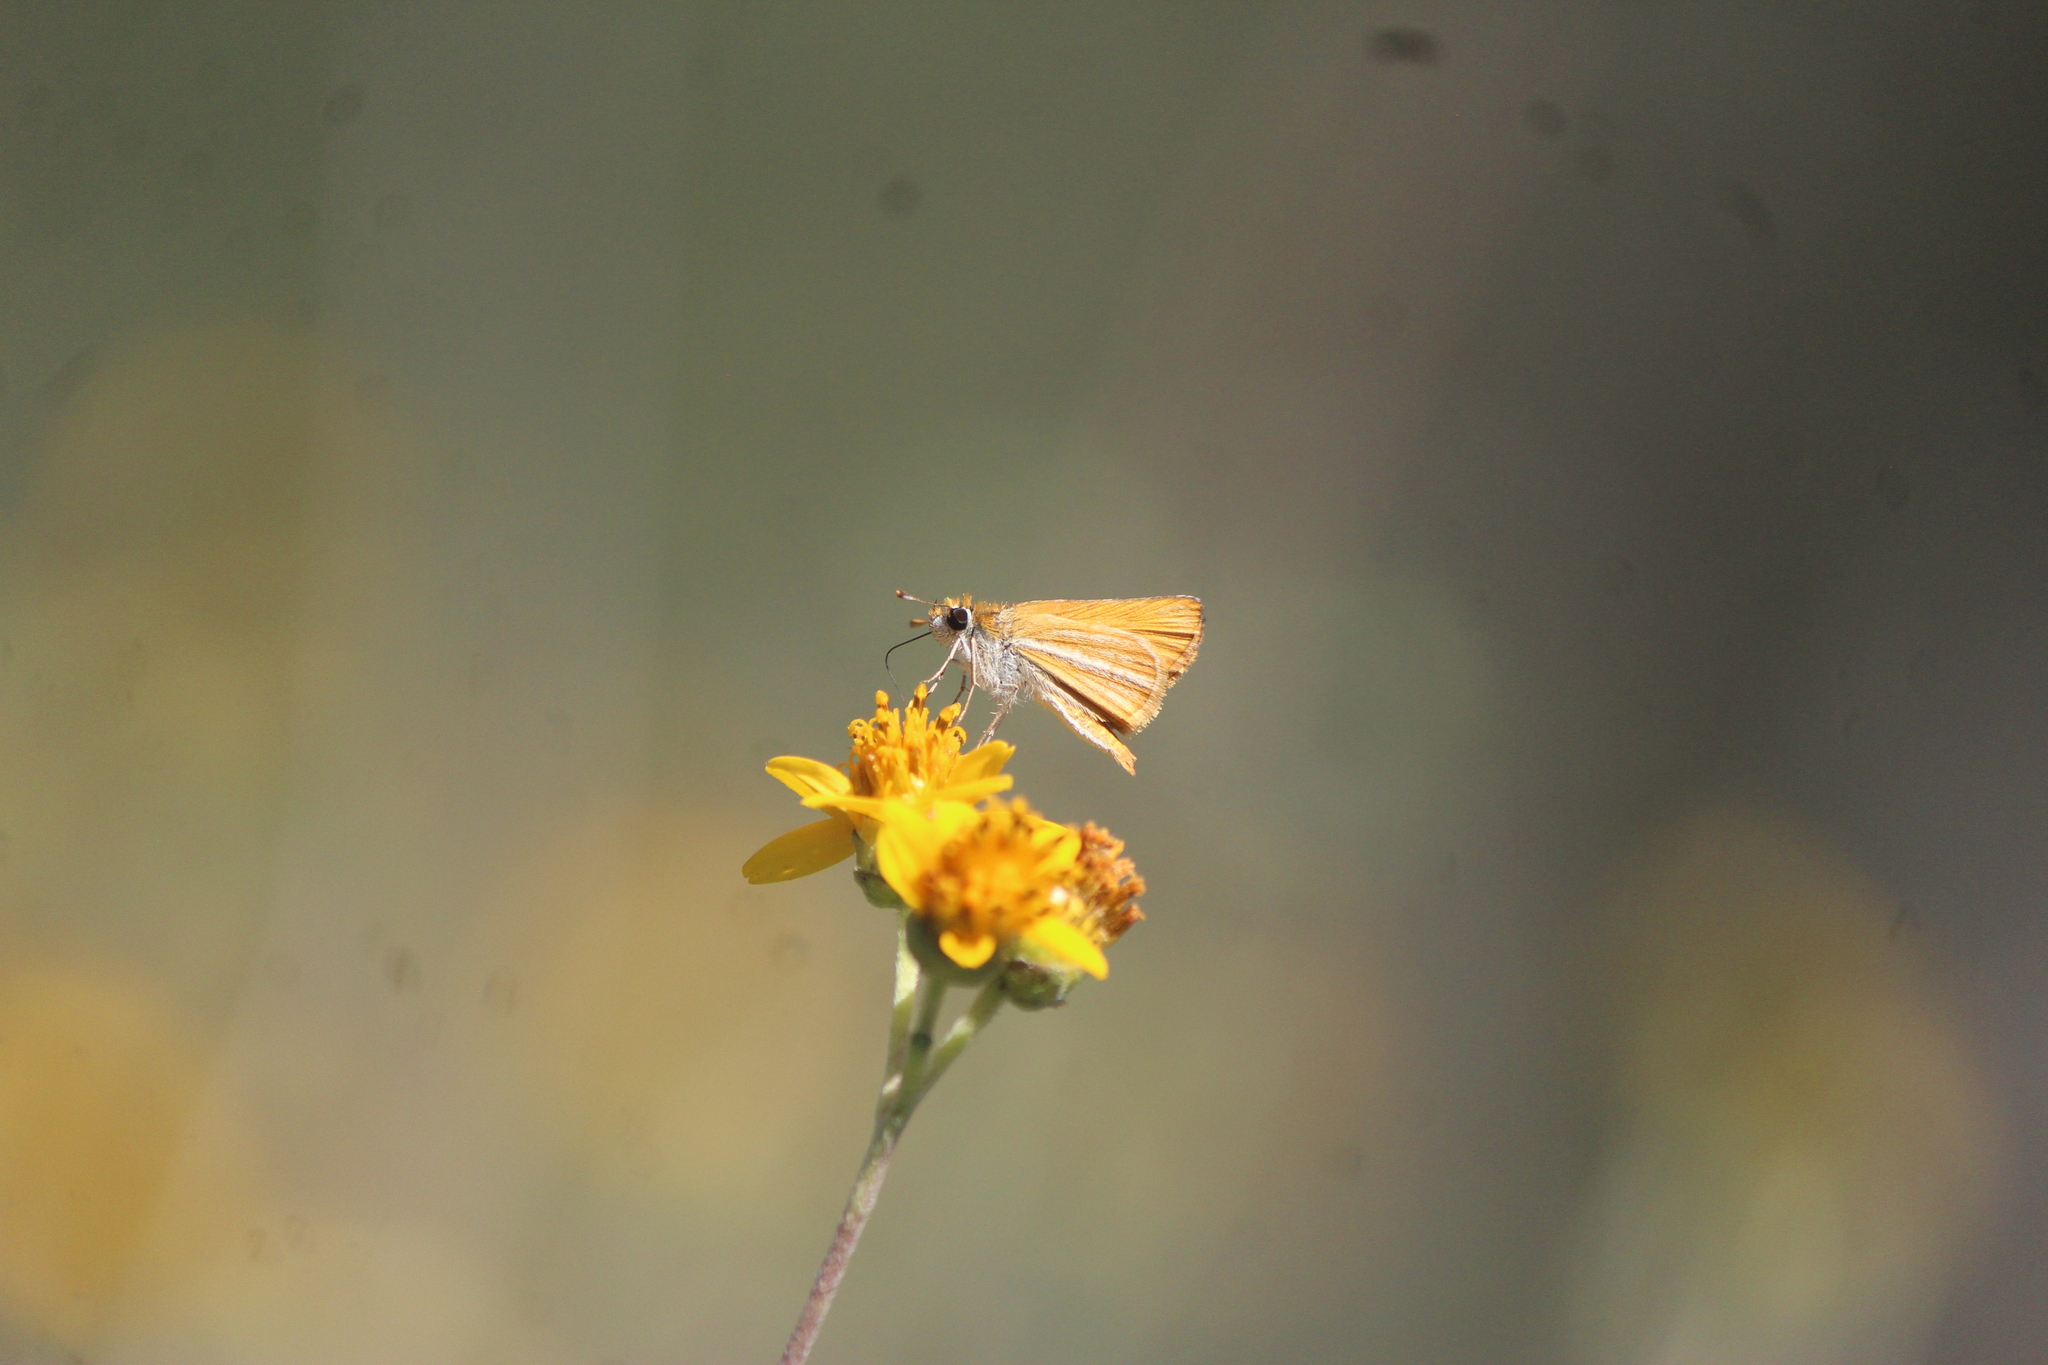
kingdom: Animalia
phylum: Arthropoda
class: Insecta
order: Lepidoptera
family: Hesperiidae
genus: Copaeodes
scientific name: Copaeodes minima
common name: Southern skipperling
